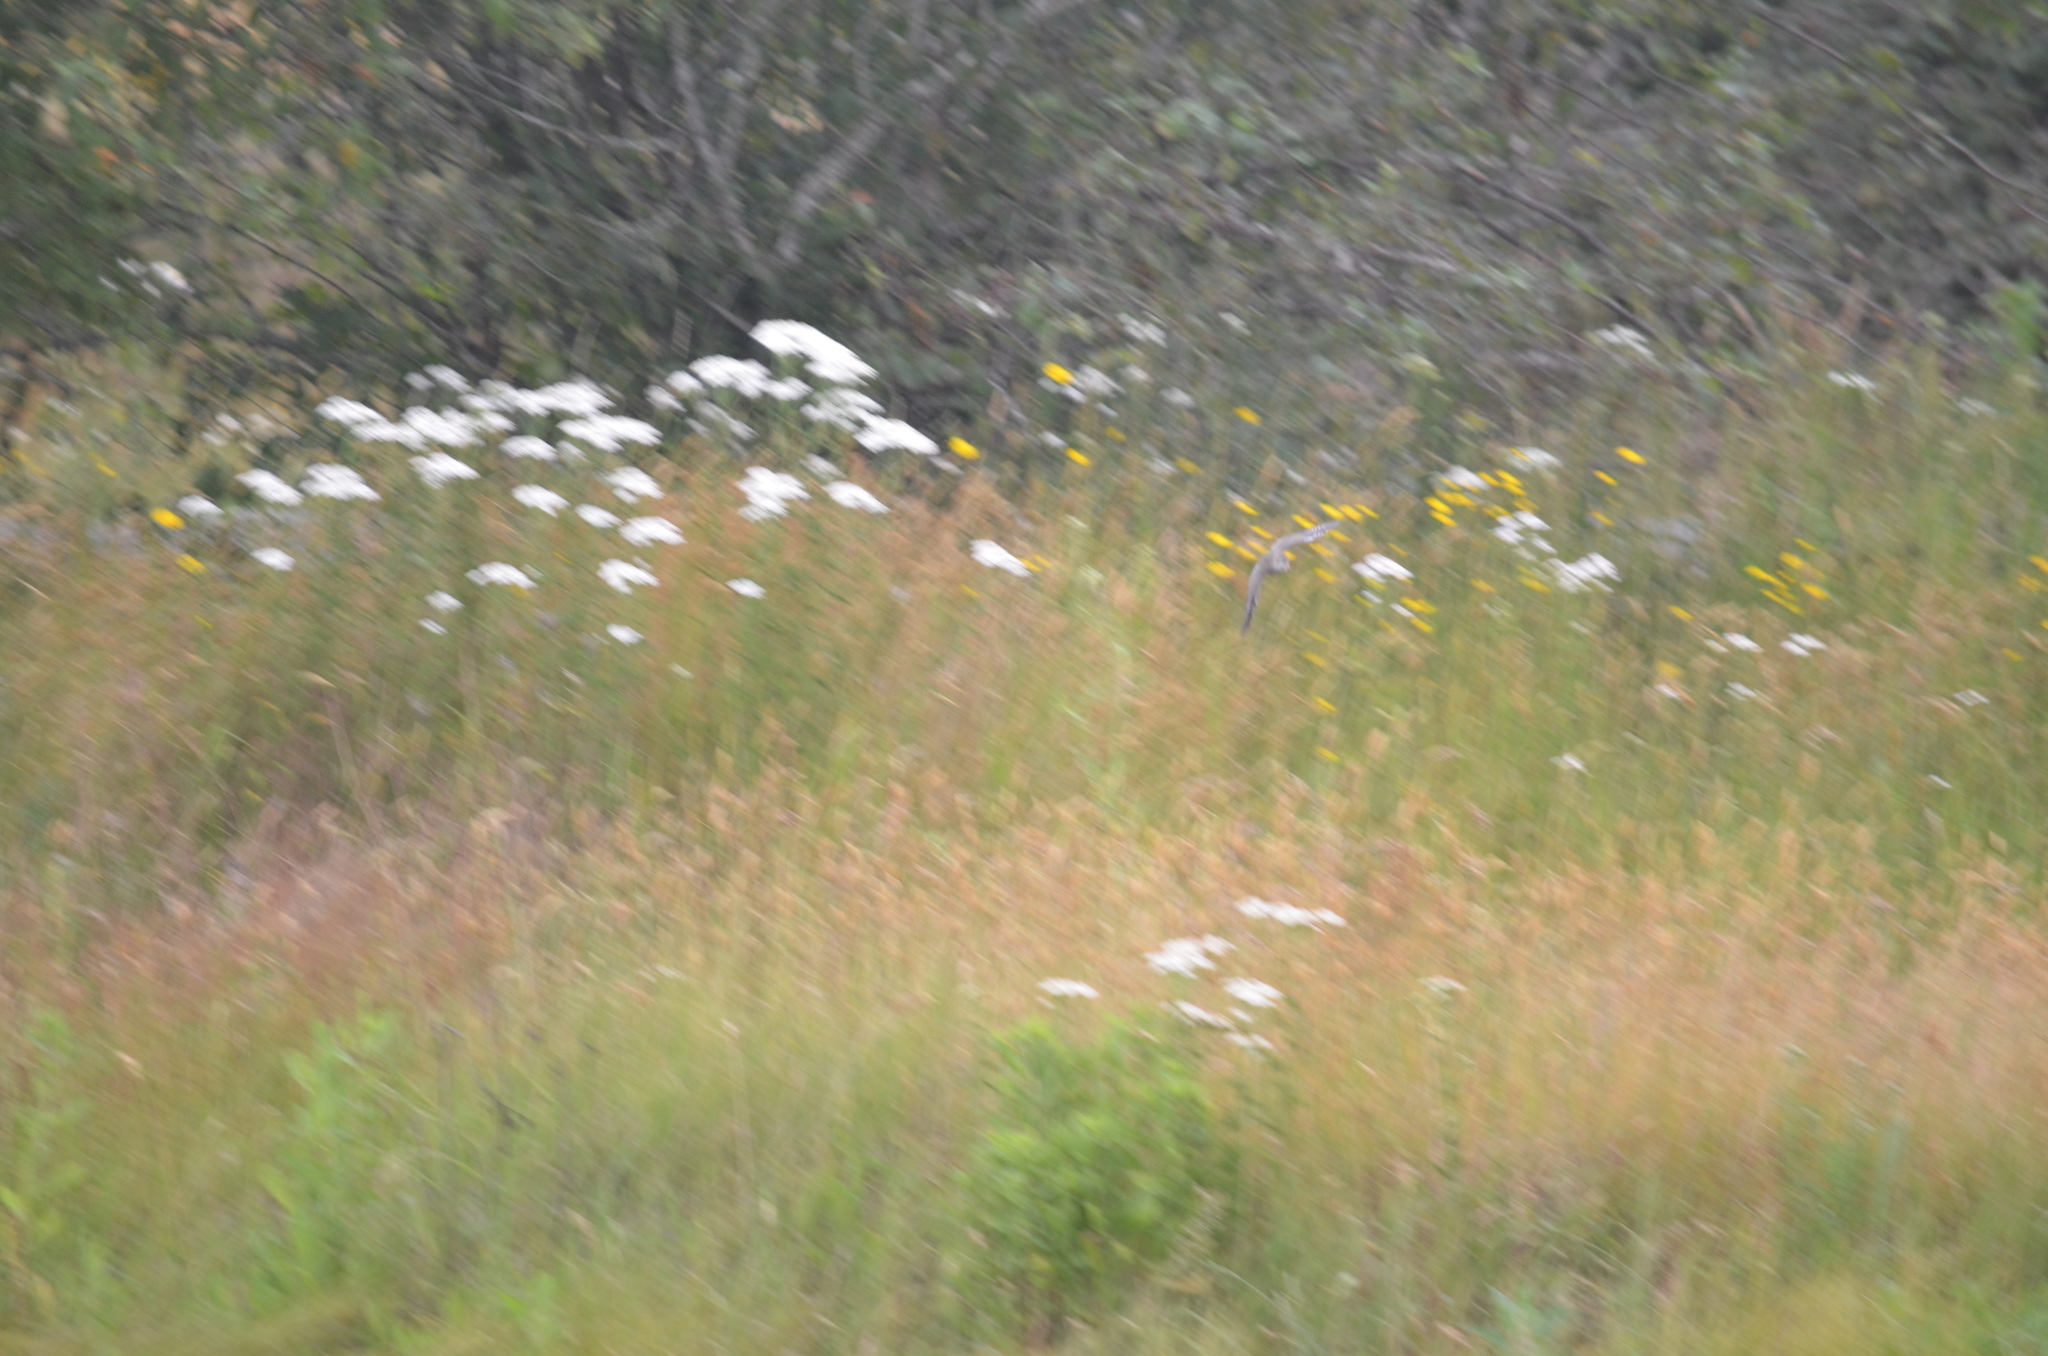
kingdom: Animalia
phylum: Chordata
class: Aves
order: Charadriiformes
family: Scolopacidae
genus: Actitis
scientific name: Actitis macularius
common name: Spotted sandpiper
